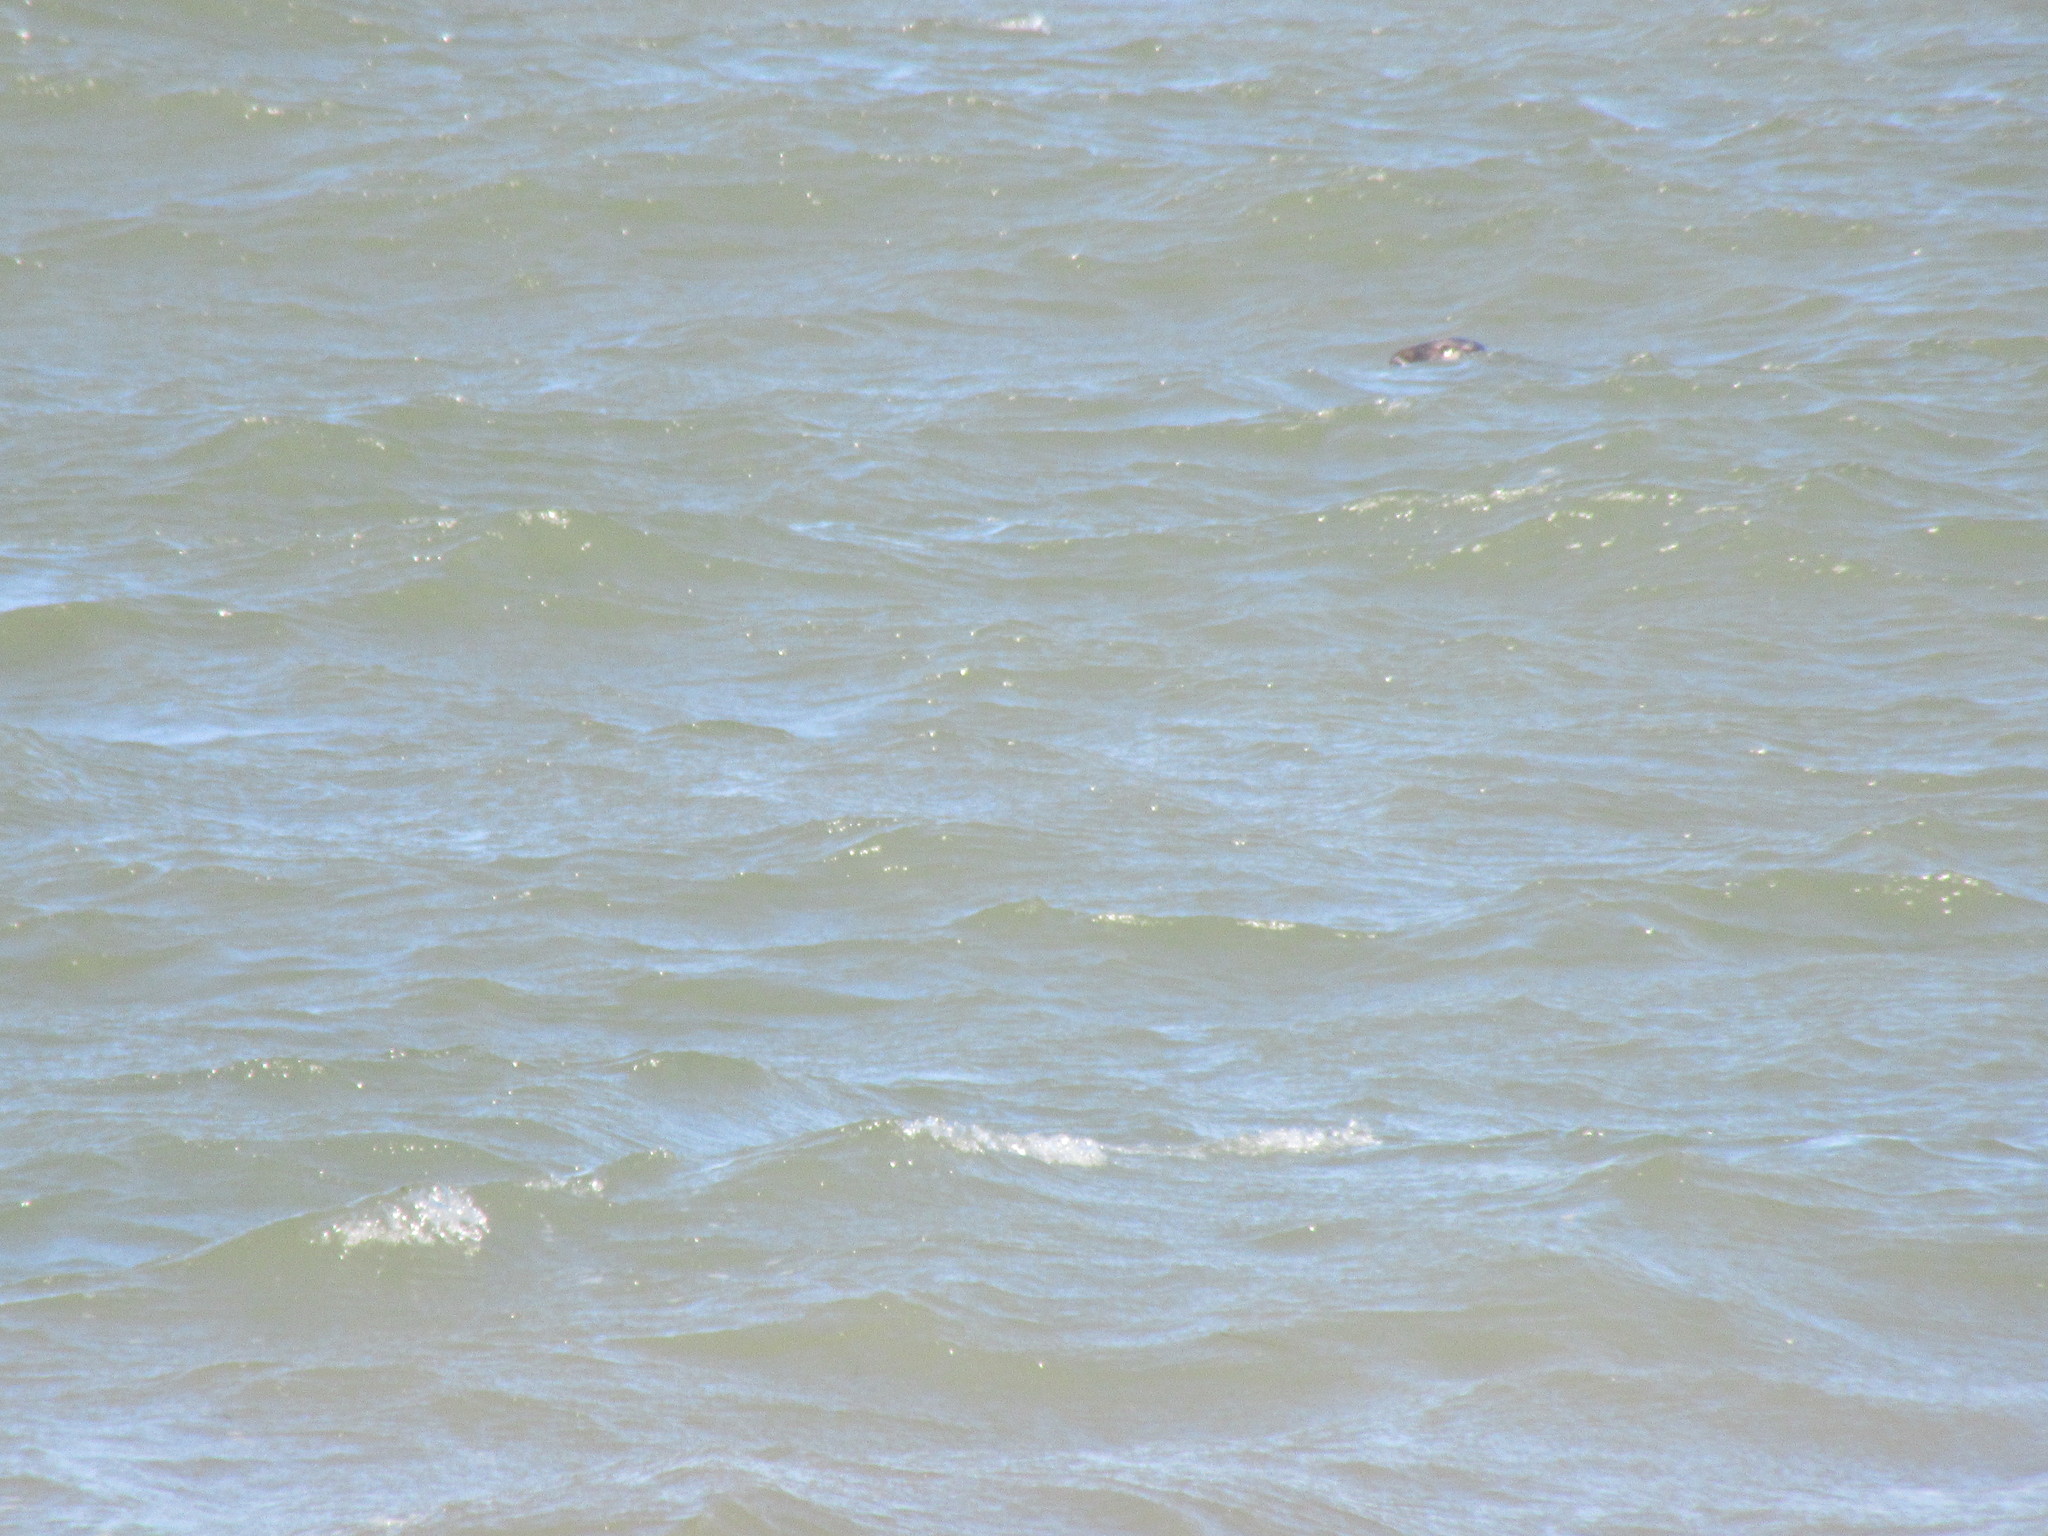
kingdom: Animalia
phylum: Chordata
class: Mammalia
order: Carnivora
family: Phocidae
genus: Halichoerus
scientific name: Halichoerus grypus
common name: Grey seal
